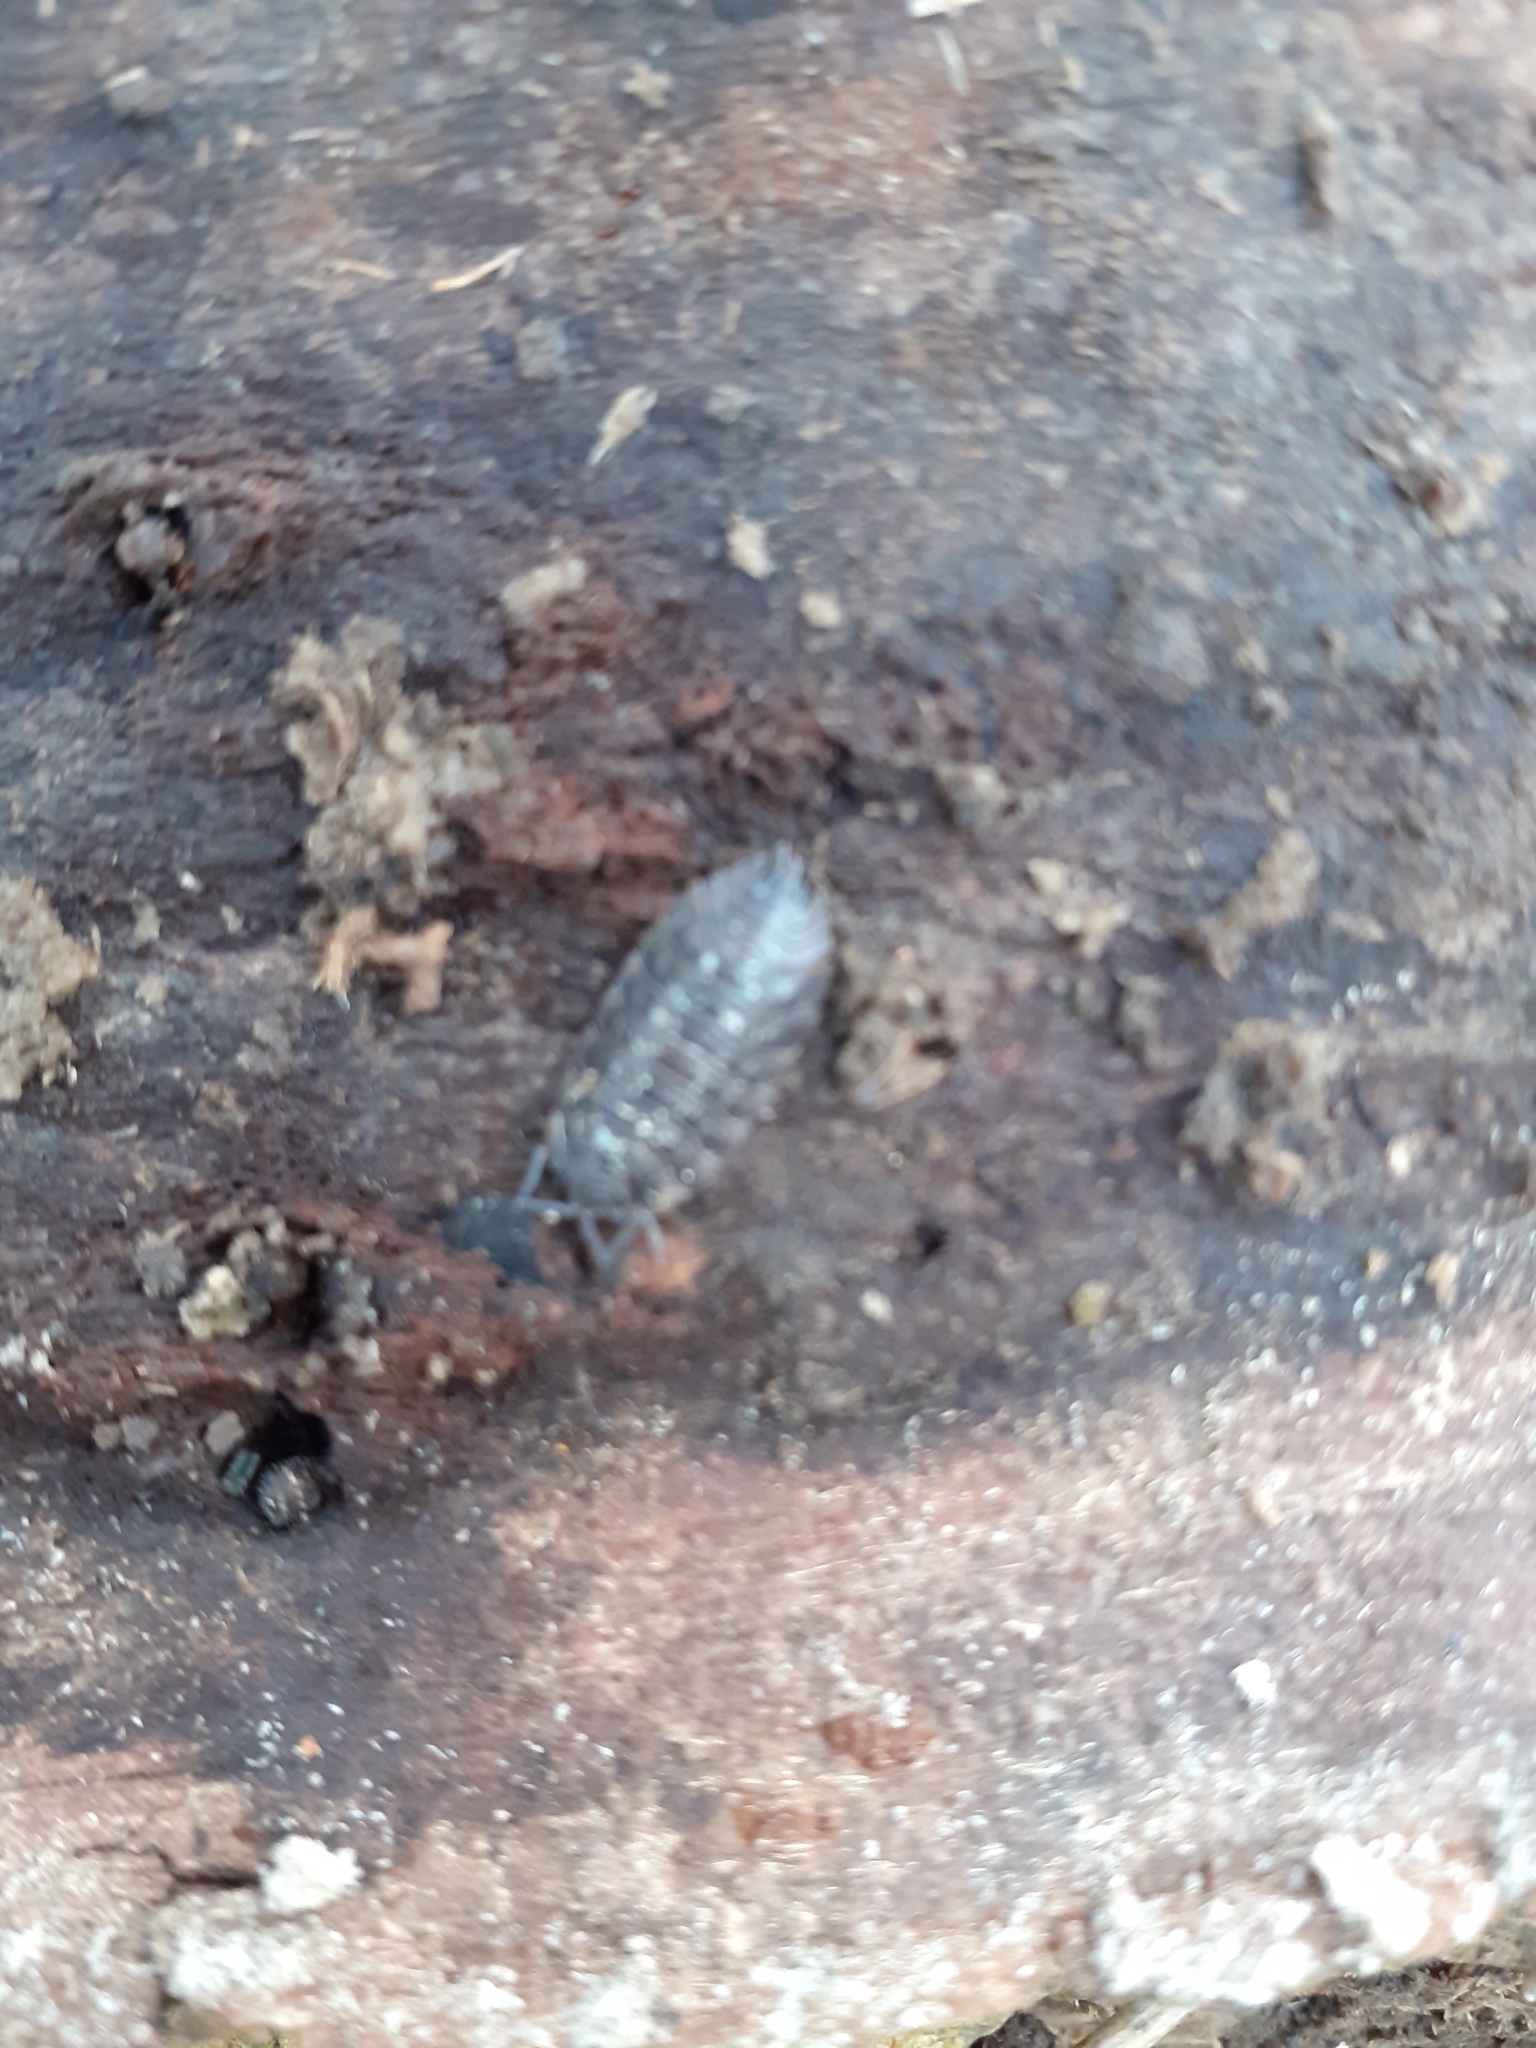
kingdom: Animalia
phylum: Arthropoda
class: Malacostraca
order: Isopoda
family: Oniscidae
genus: Oniscus
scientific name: Oniscus asellus
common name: Common shiny woodlouse
